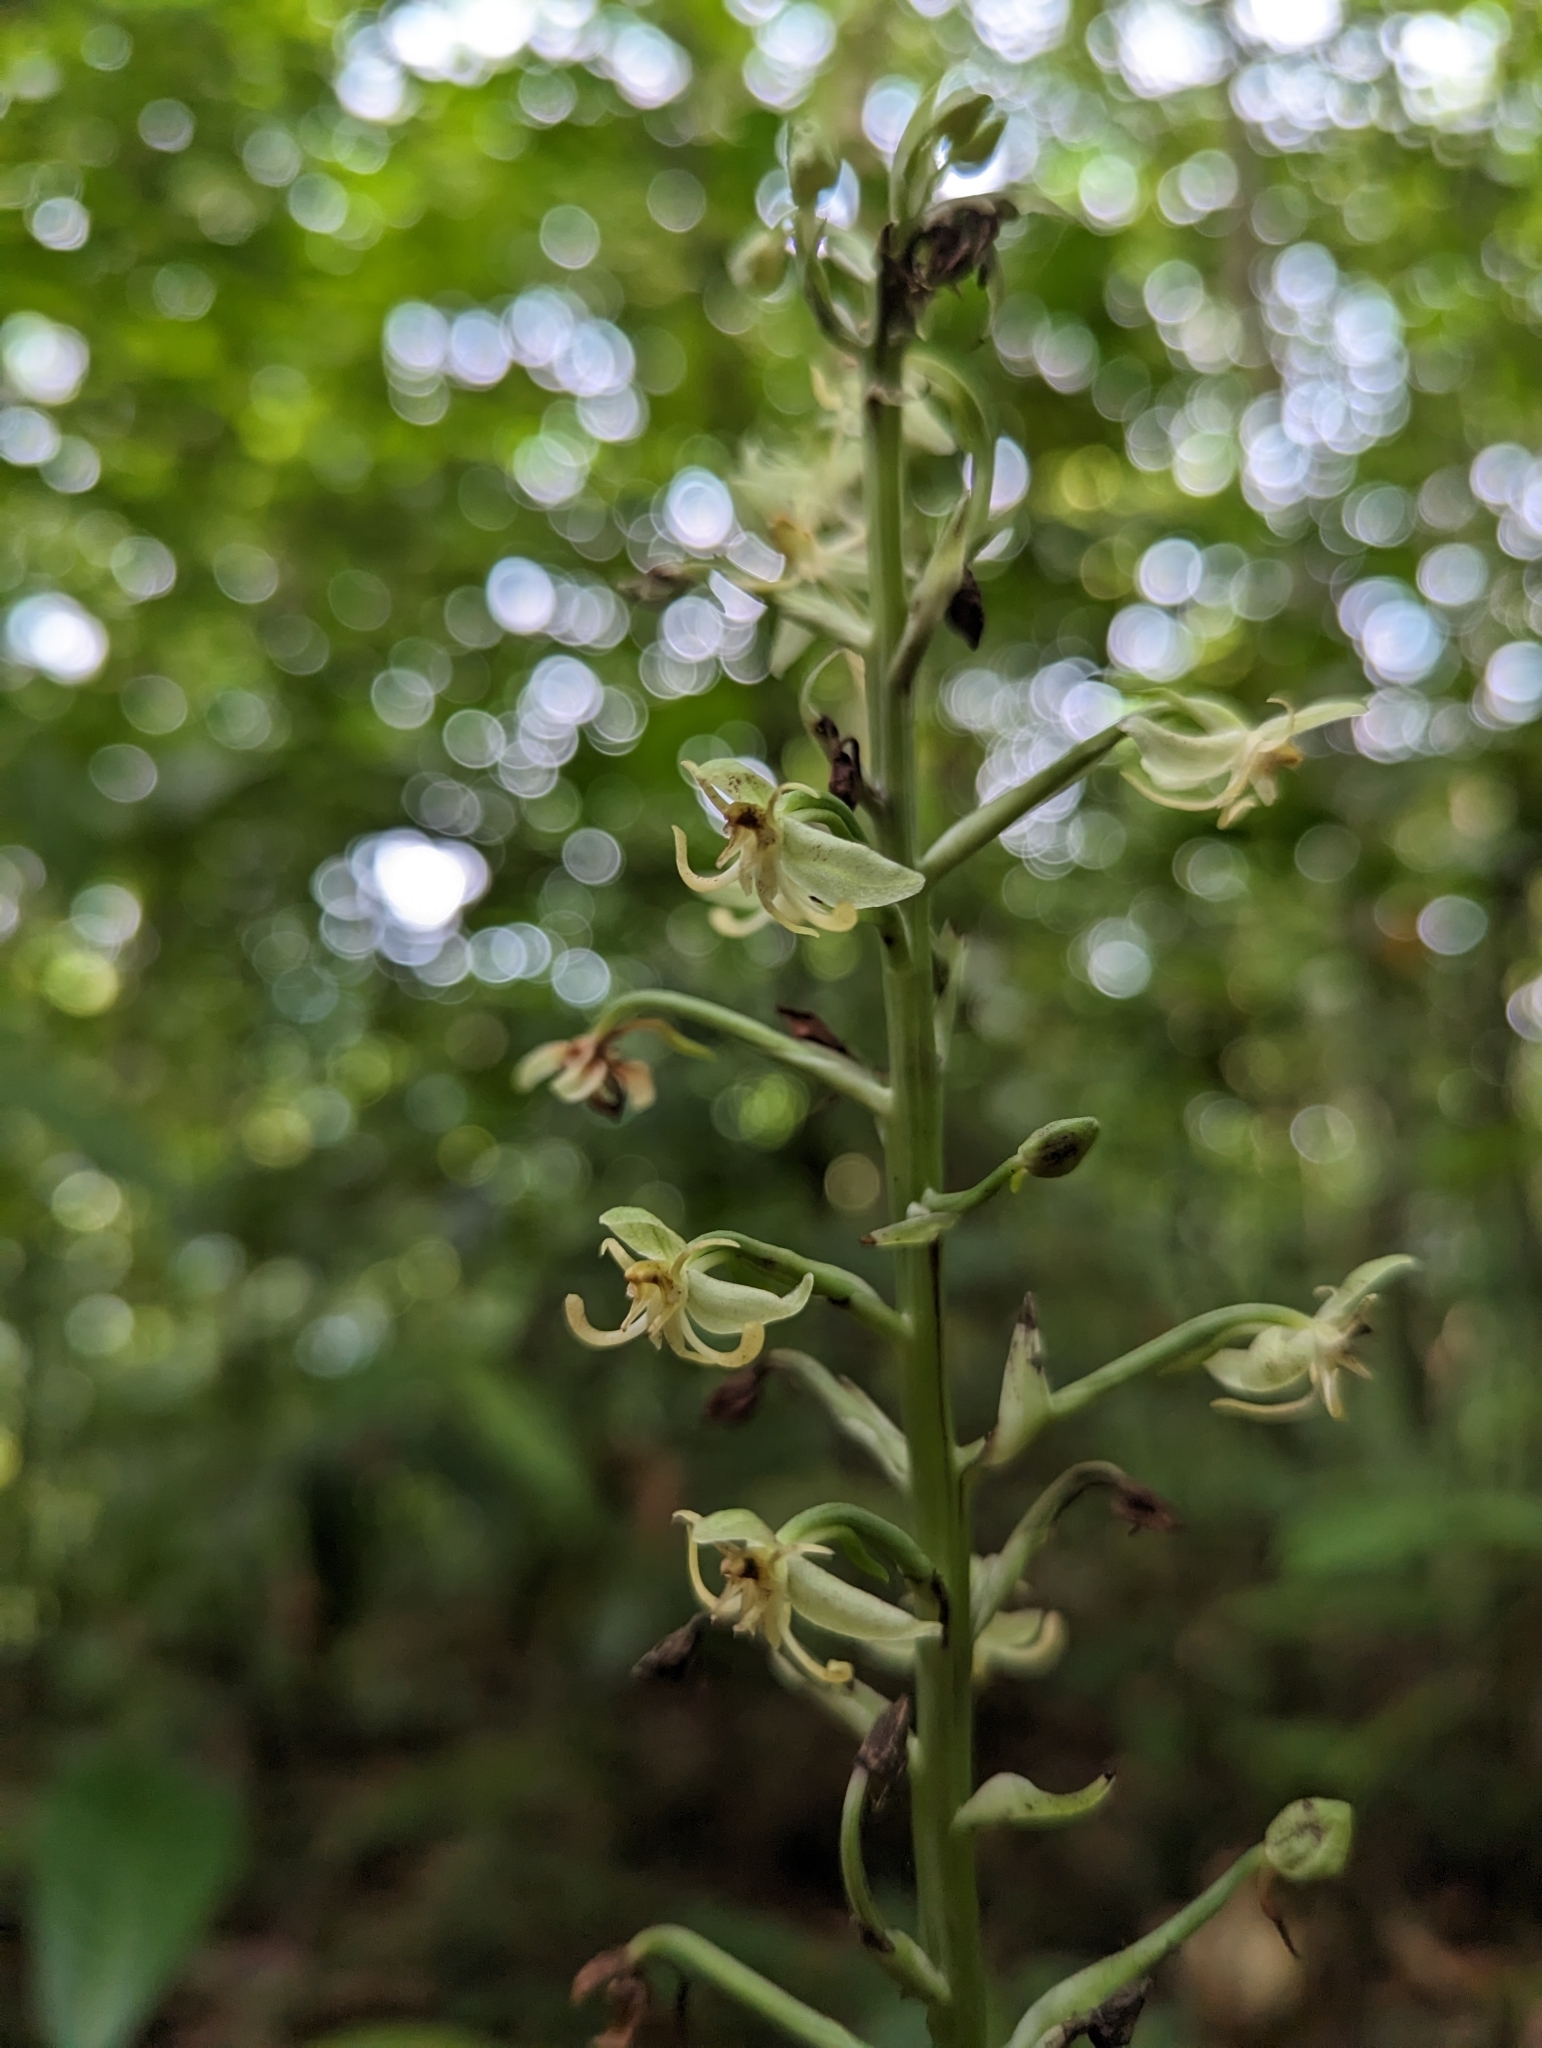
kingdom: Plantae
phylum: Tracheophyta
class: Liliopsida
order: Asparagales
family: Orchidaceae
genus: Habenaria
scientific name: Habenaria thomana
